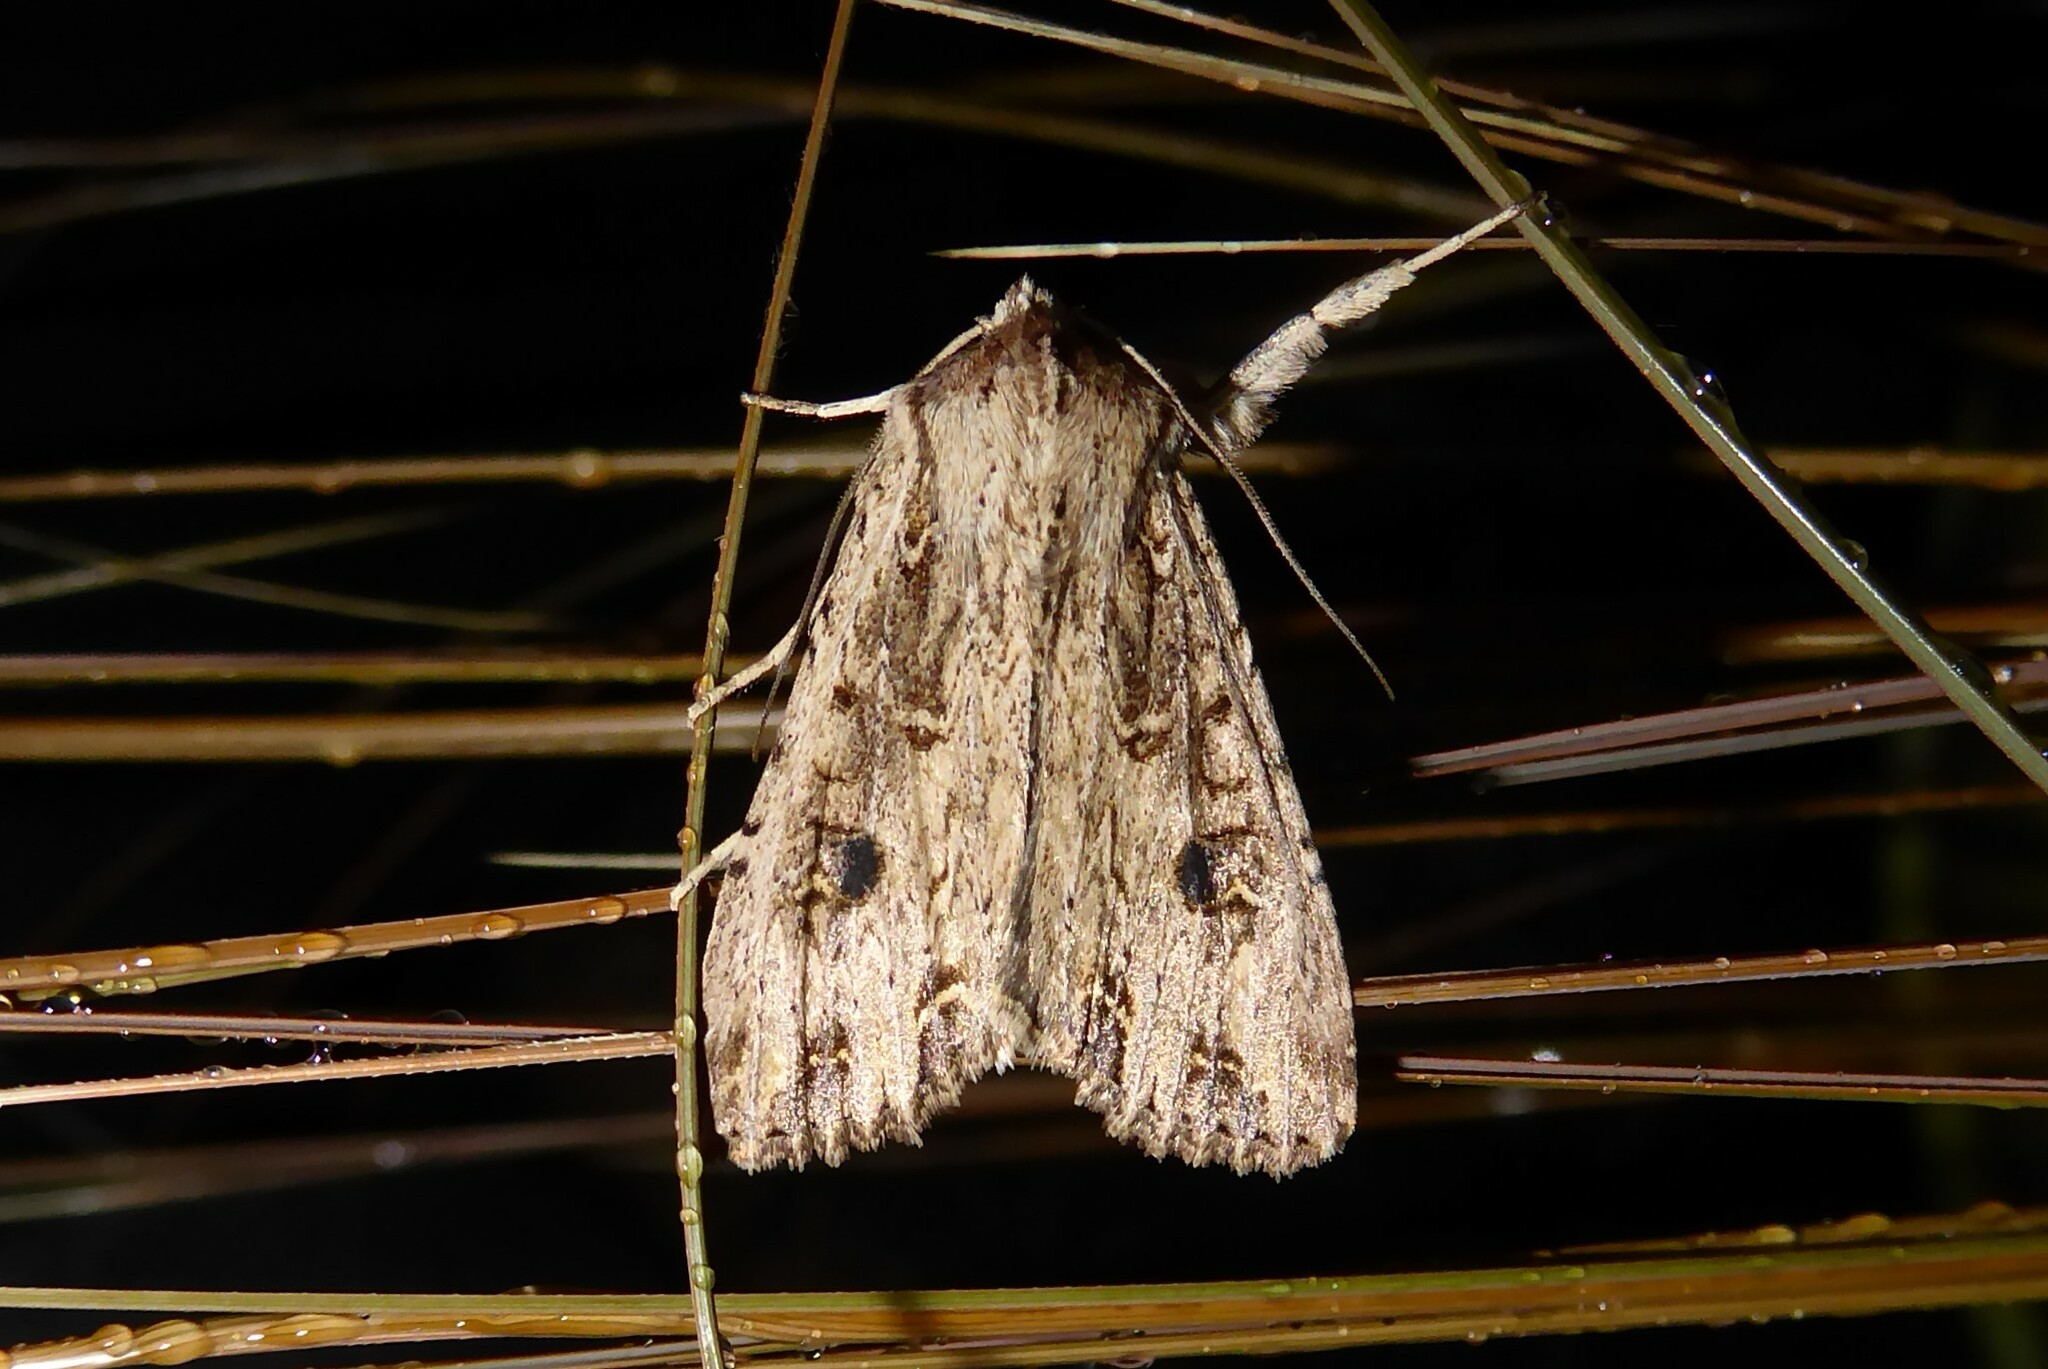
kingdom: Animalia
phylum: Arthropoda
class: Insecta
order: Lepidoptera
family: Noctuidae
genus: Ichneutica
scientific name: Ichneutica lignana
